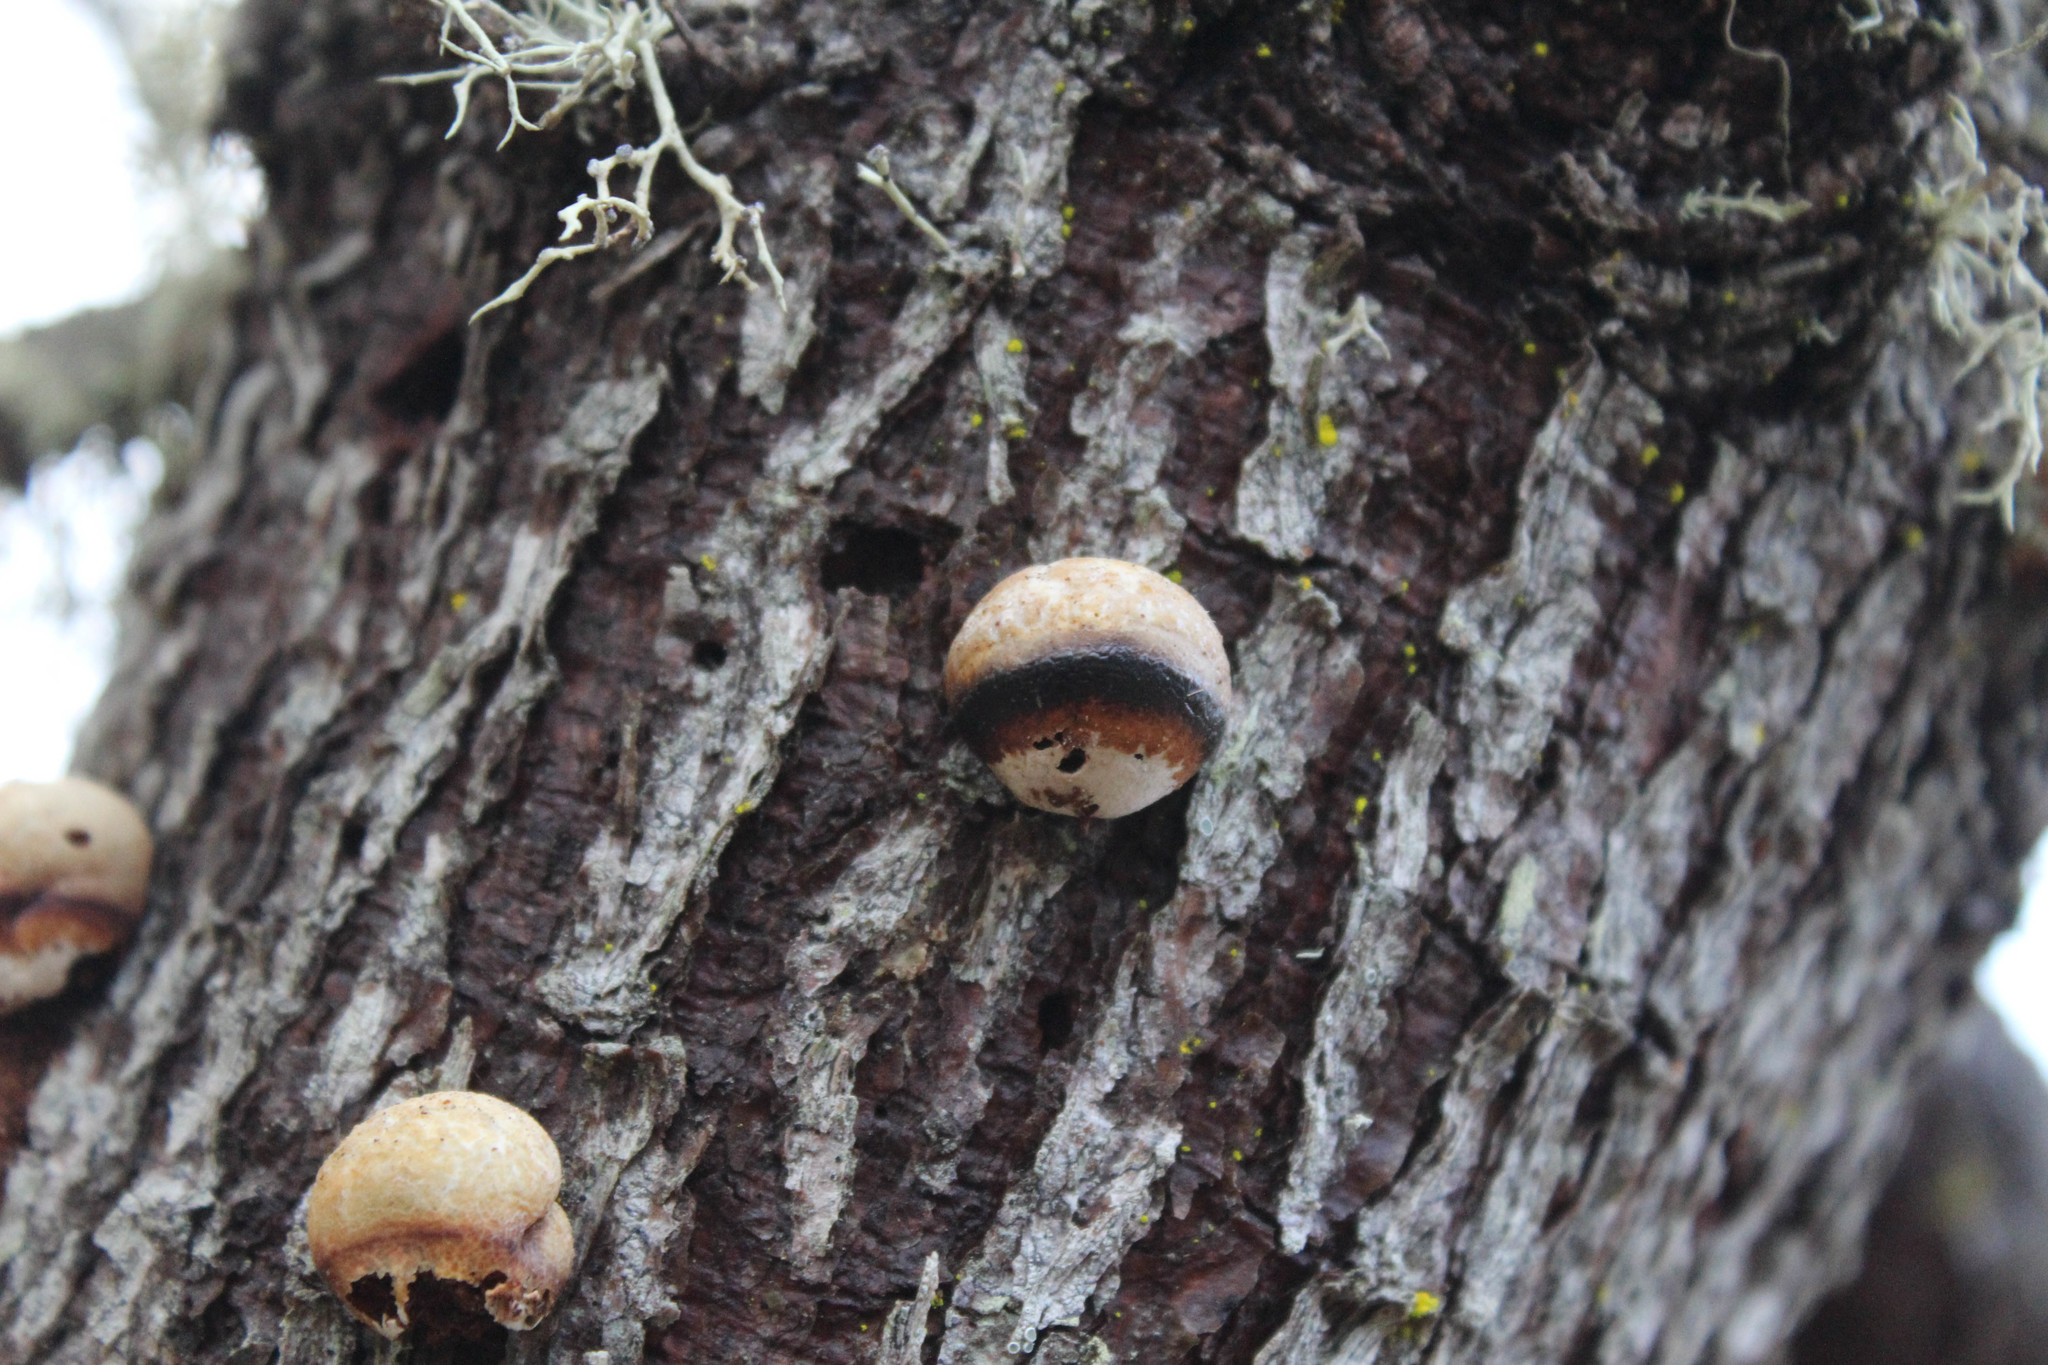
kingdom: Fungi
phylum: Basidiomycota
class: Agaricomycetes
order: Polyporales
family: Polyporaceae
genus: Cryptoporus
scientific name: Cryptoporus volvatus
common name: Veiled polypore
